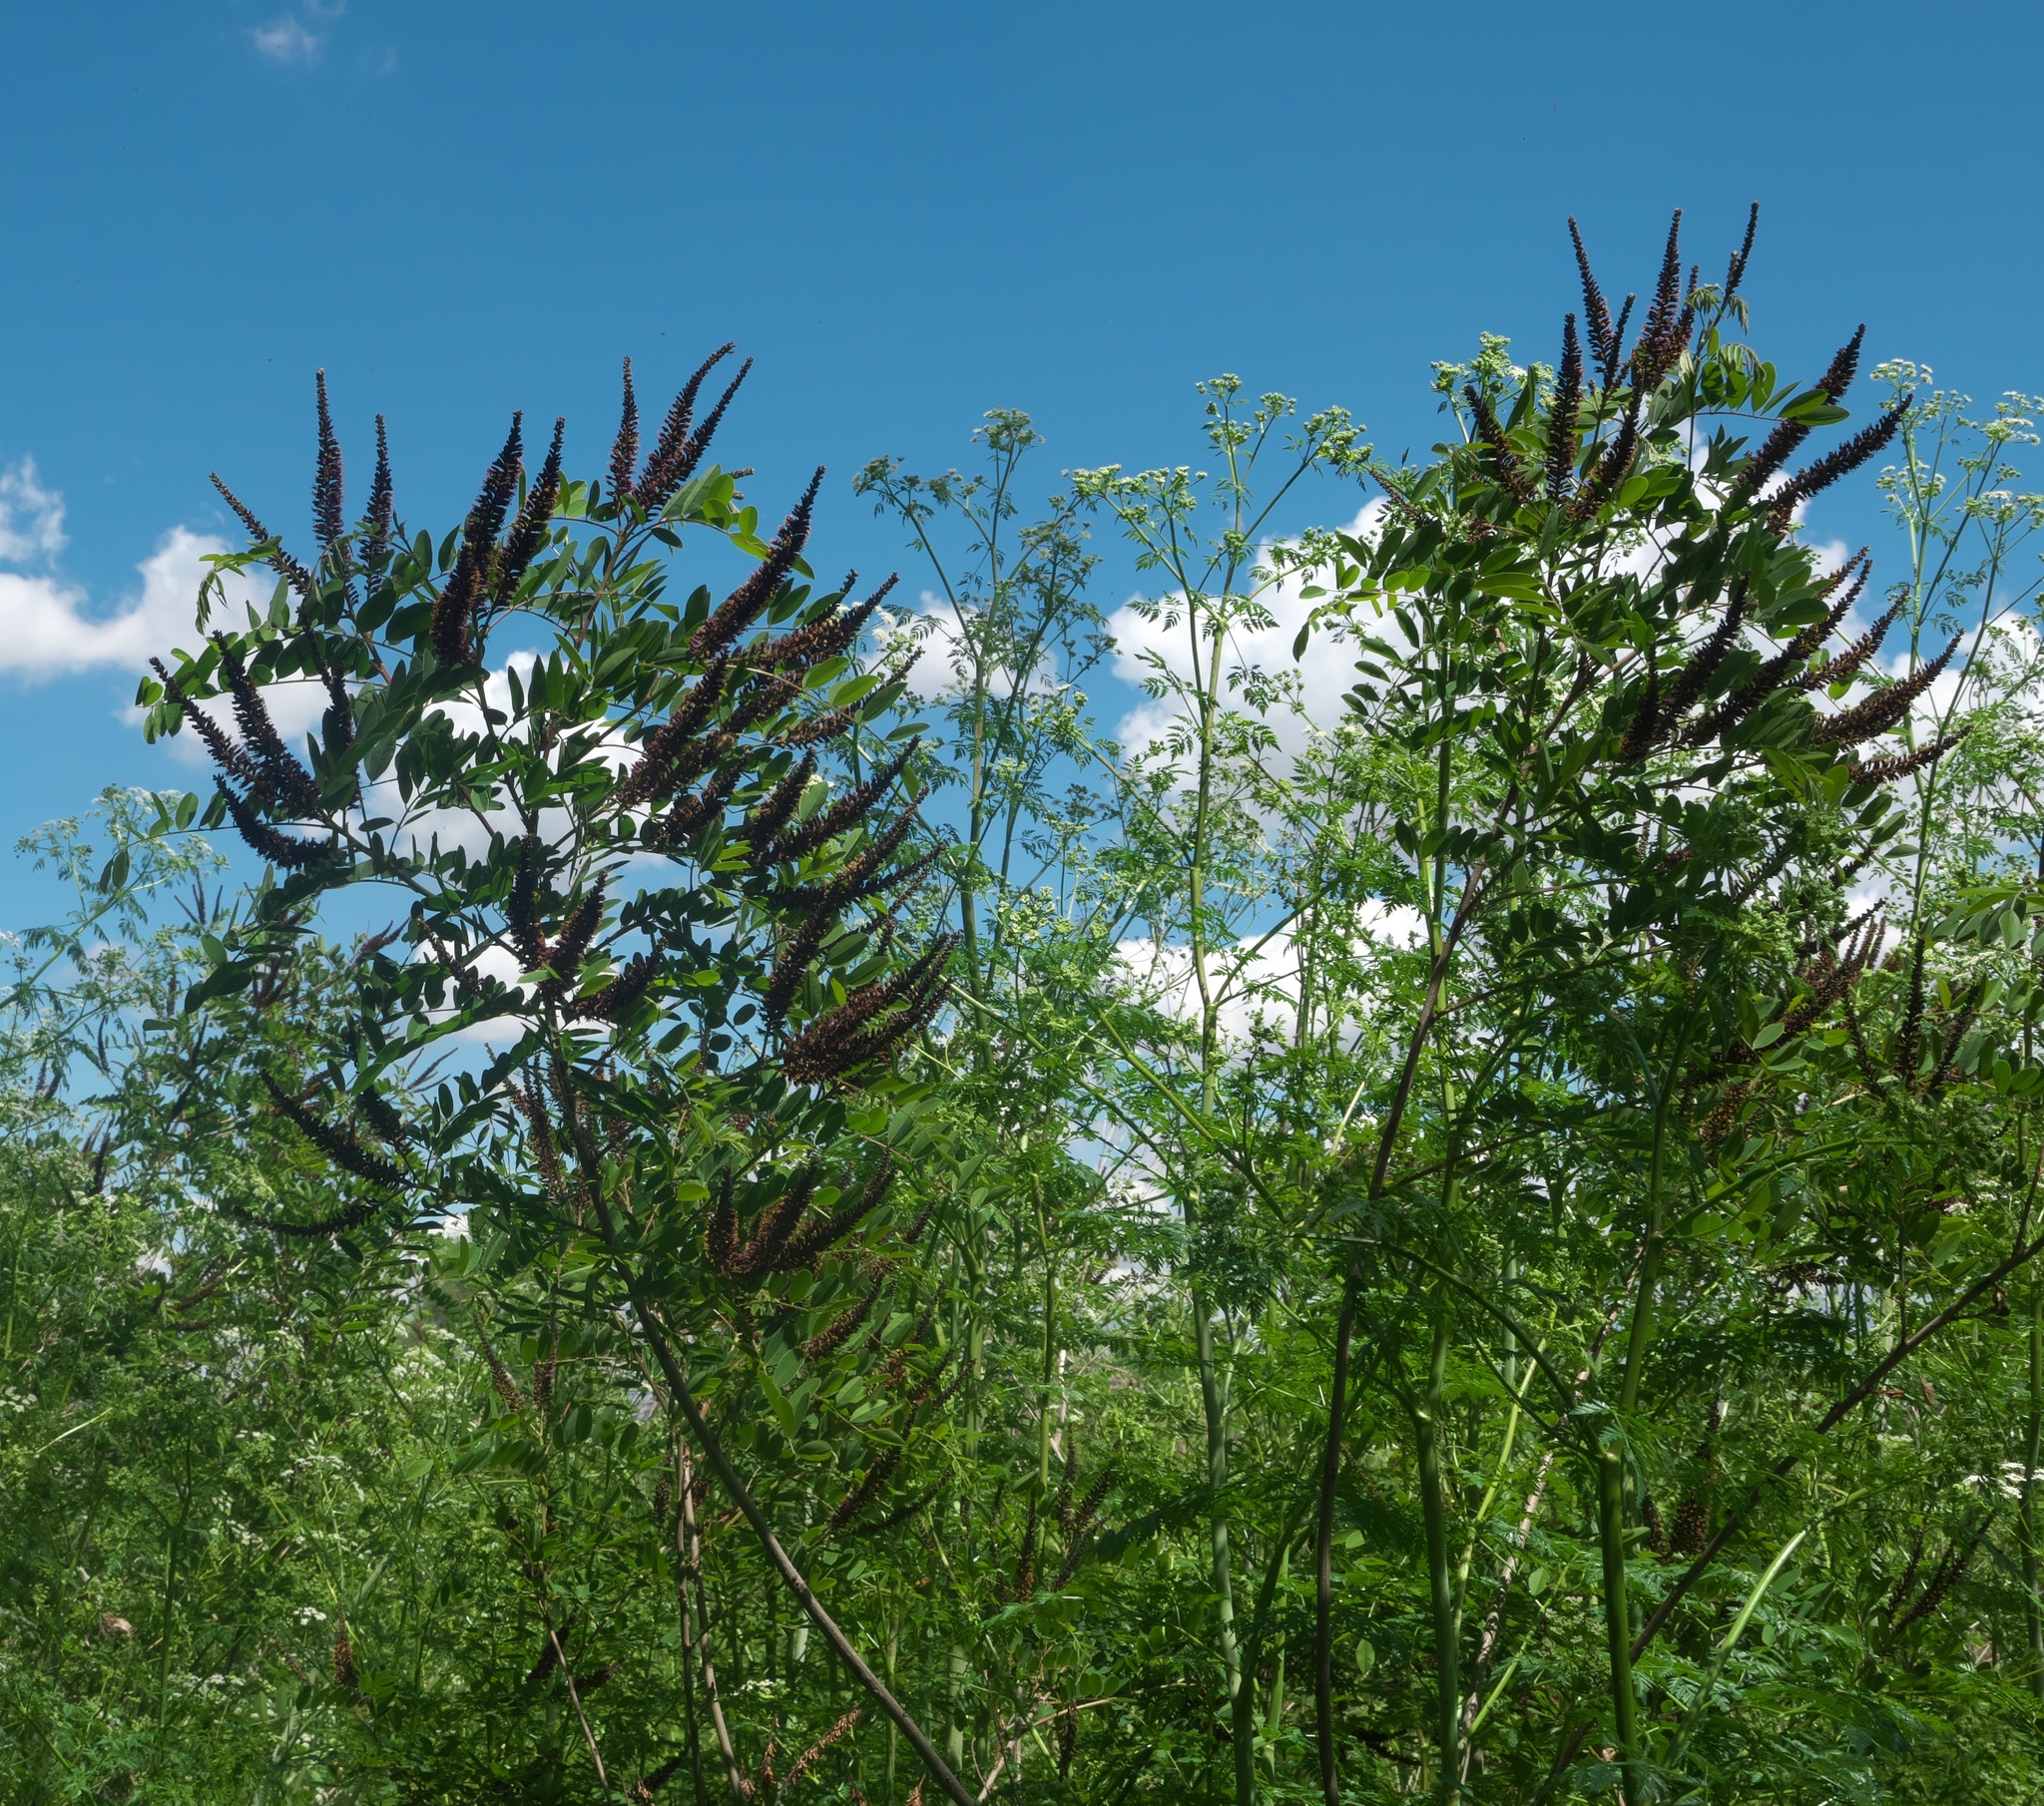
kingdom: Plantae
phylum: Tracheophyta
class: Magnoliopsida
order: Fabales
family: Fabaceae
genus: Amorpha
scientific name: Amorpha fruticosa
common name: False indigo
